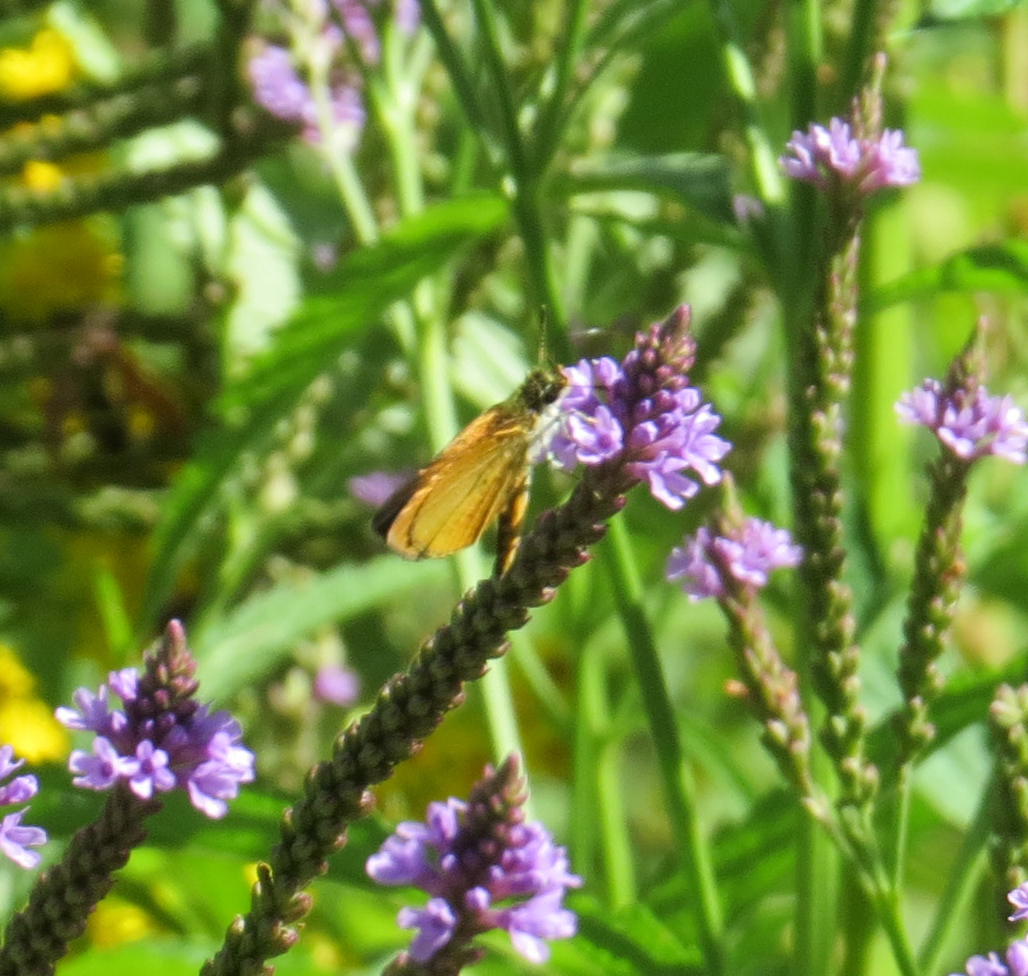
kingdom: Animalia
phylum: Arthropoda
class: Insecta
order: Lepidoptera
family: Hesperiidae
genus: Ancyloxypha
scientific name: Ancyloxypha numitor
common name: Least skipper
